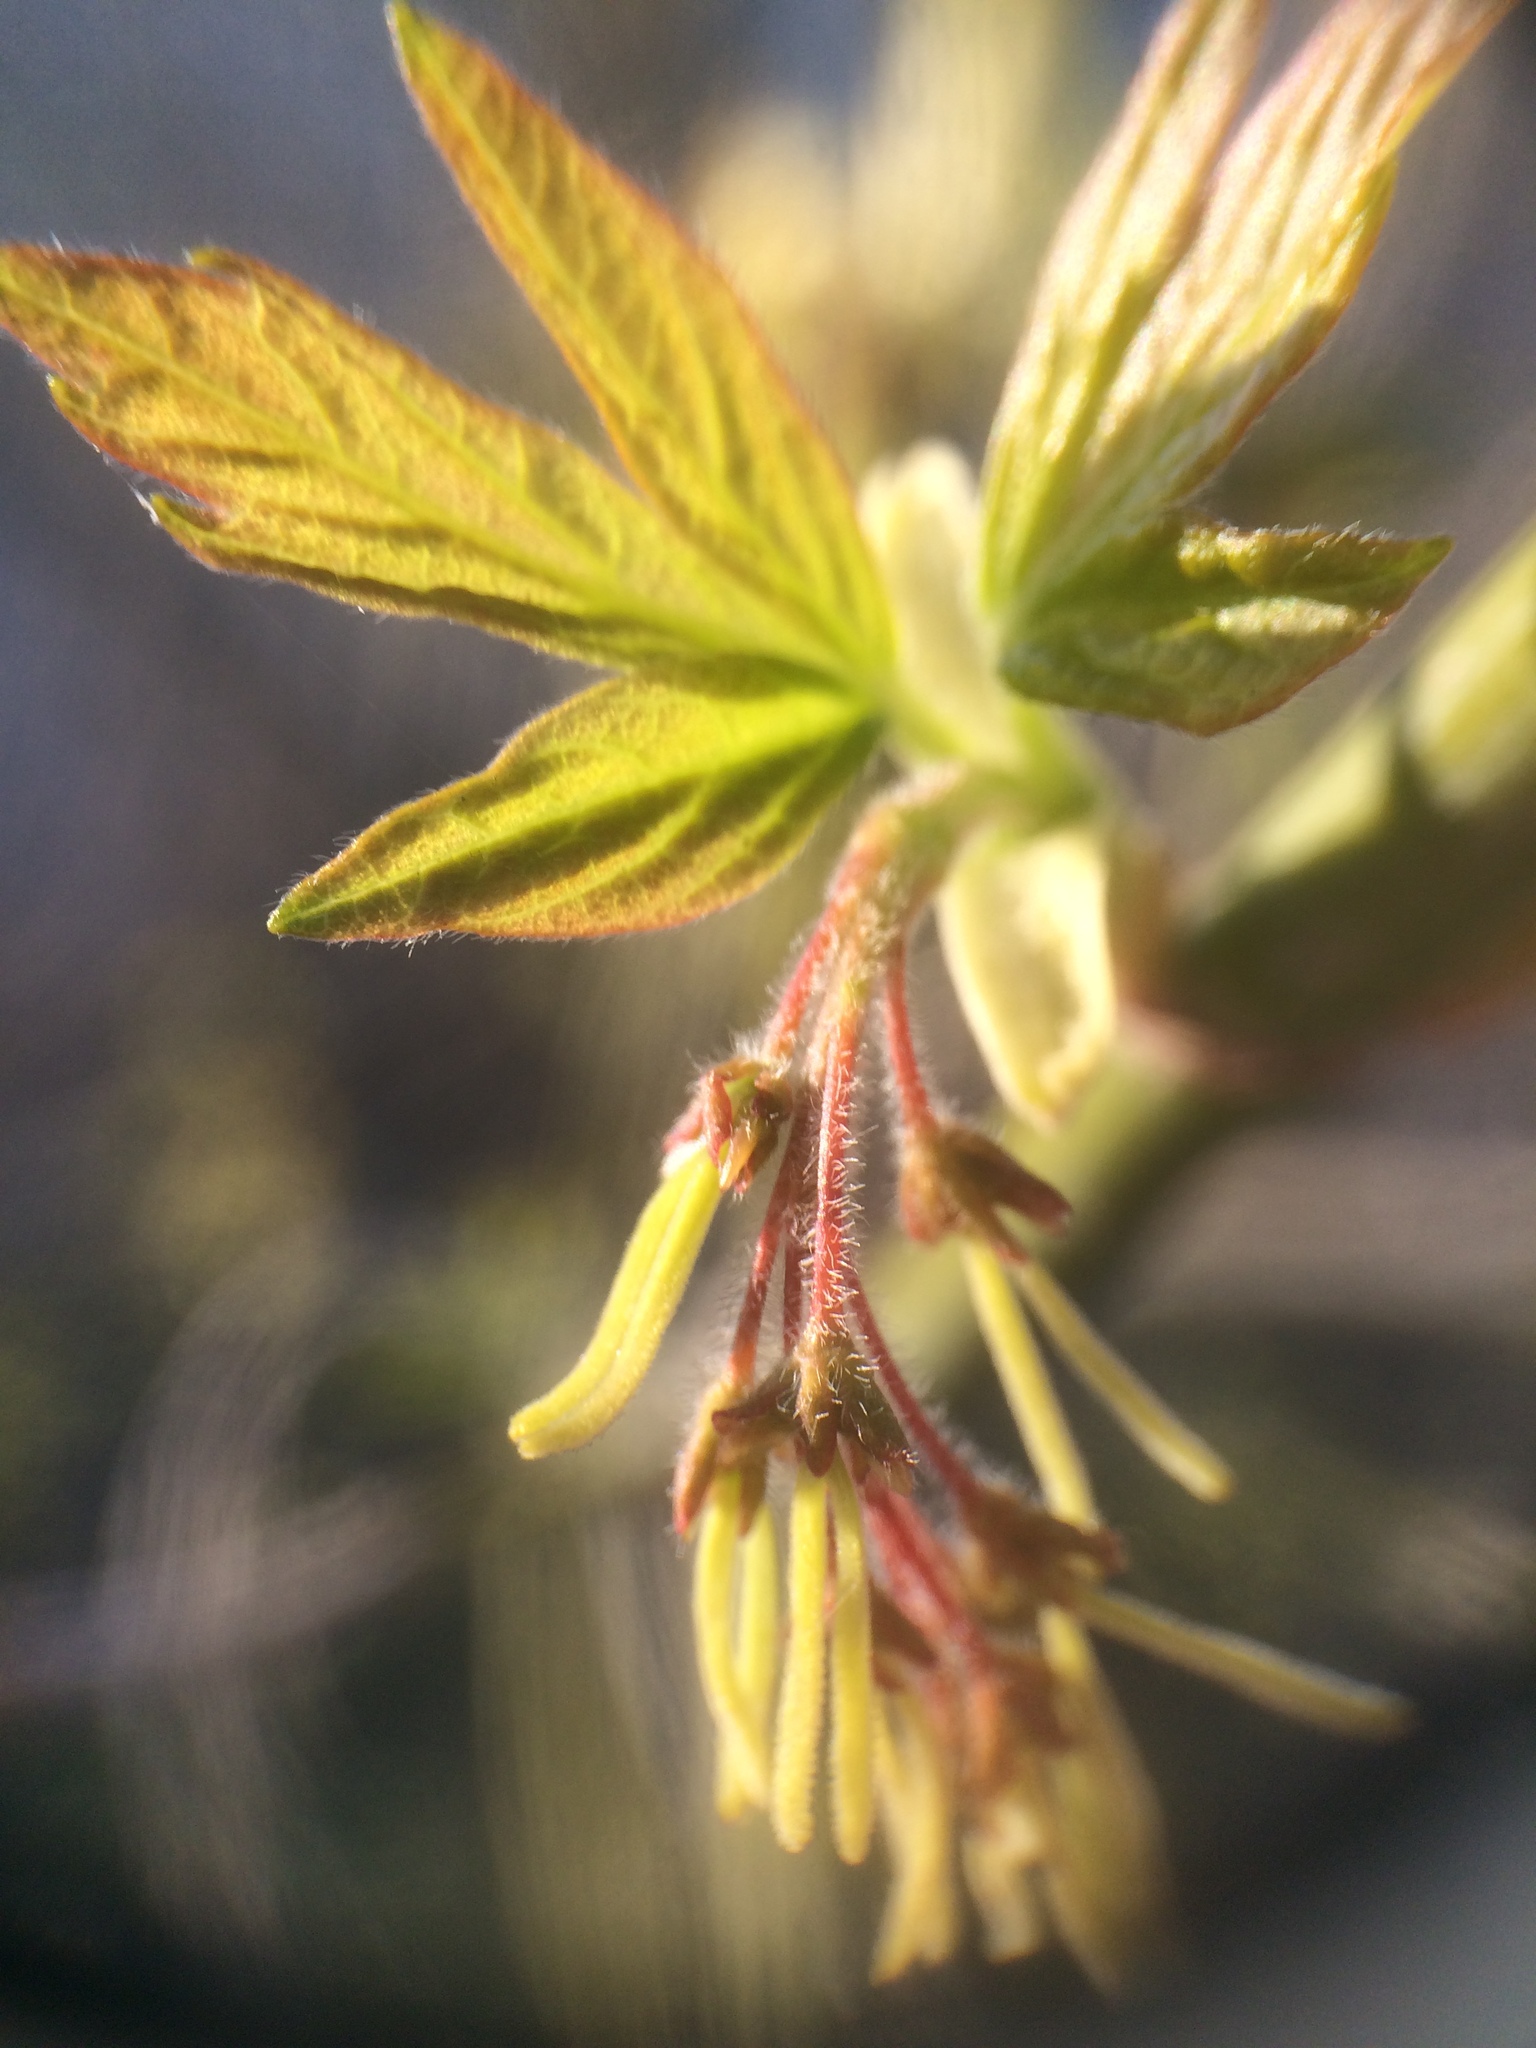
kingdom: Plantae
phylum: Tracheophyta
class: Magnoliopsida
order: Sapindales
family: Sapindaceae
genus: Acer
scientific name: Acer negundo
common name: Ashleaf maple
